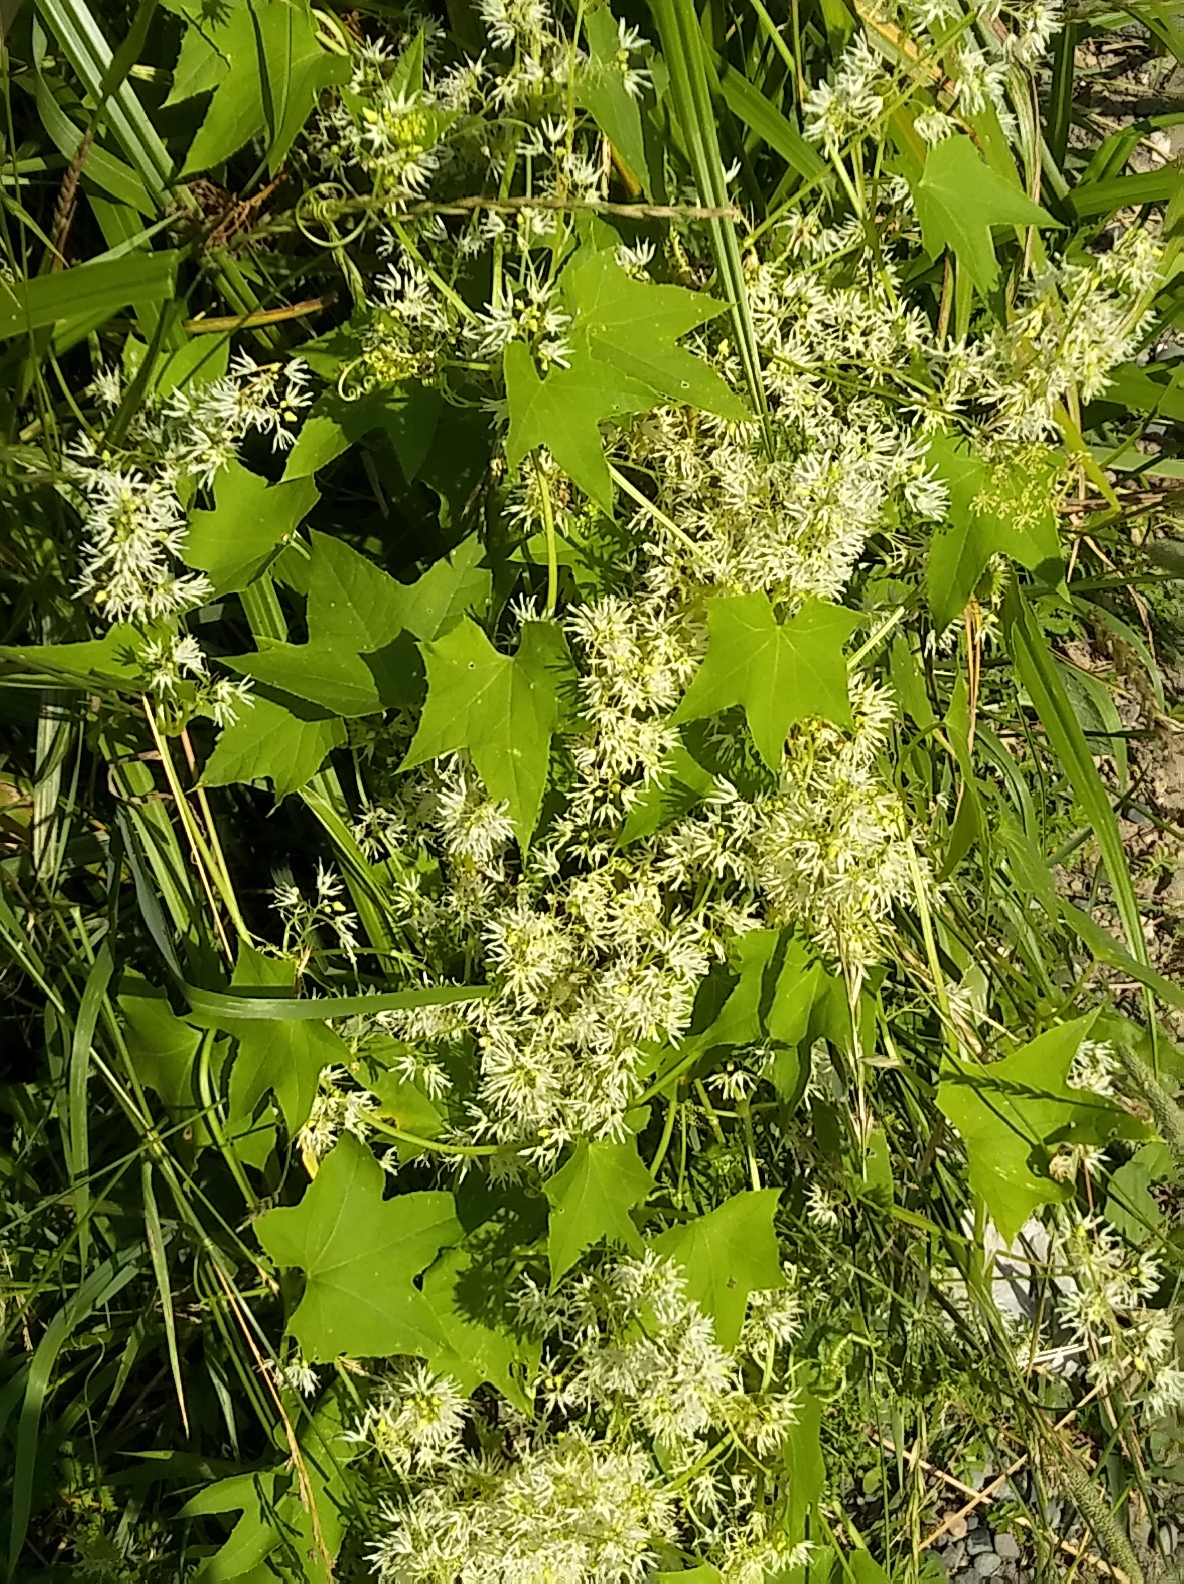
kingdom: Plantae
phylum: Tracheophyta
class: Magnoliopsida
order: Cucurbitales
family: Cucurbitaceae
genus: Echinocystis
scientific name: Echinocystis lobata
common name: Wild cucumber
